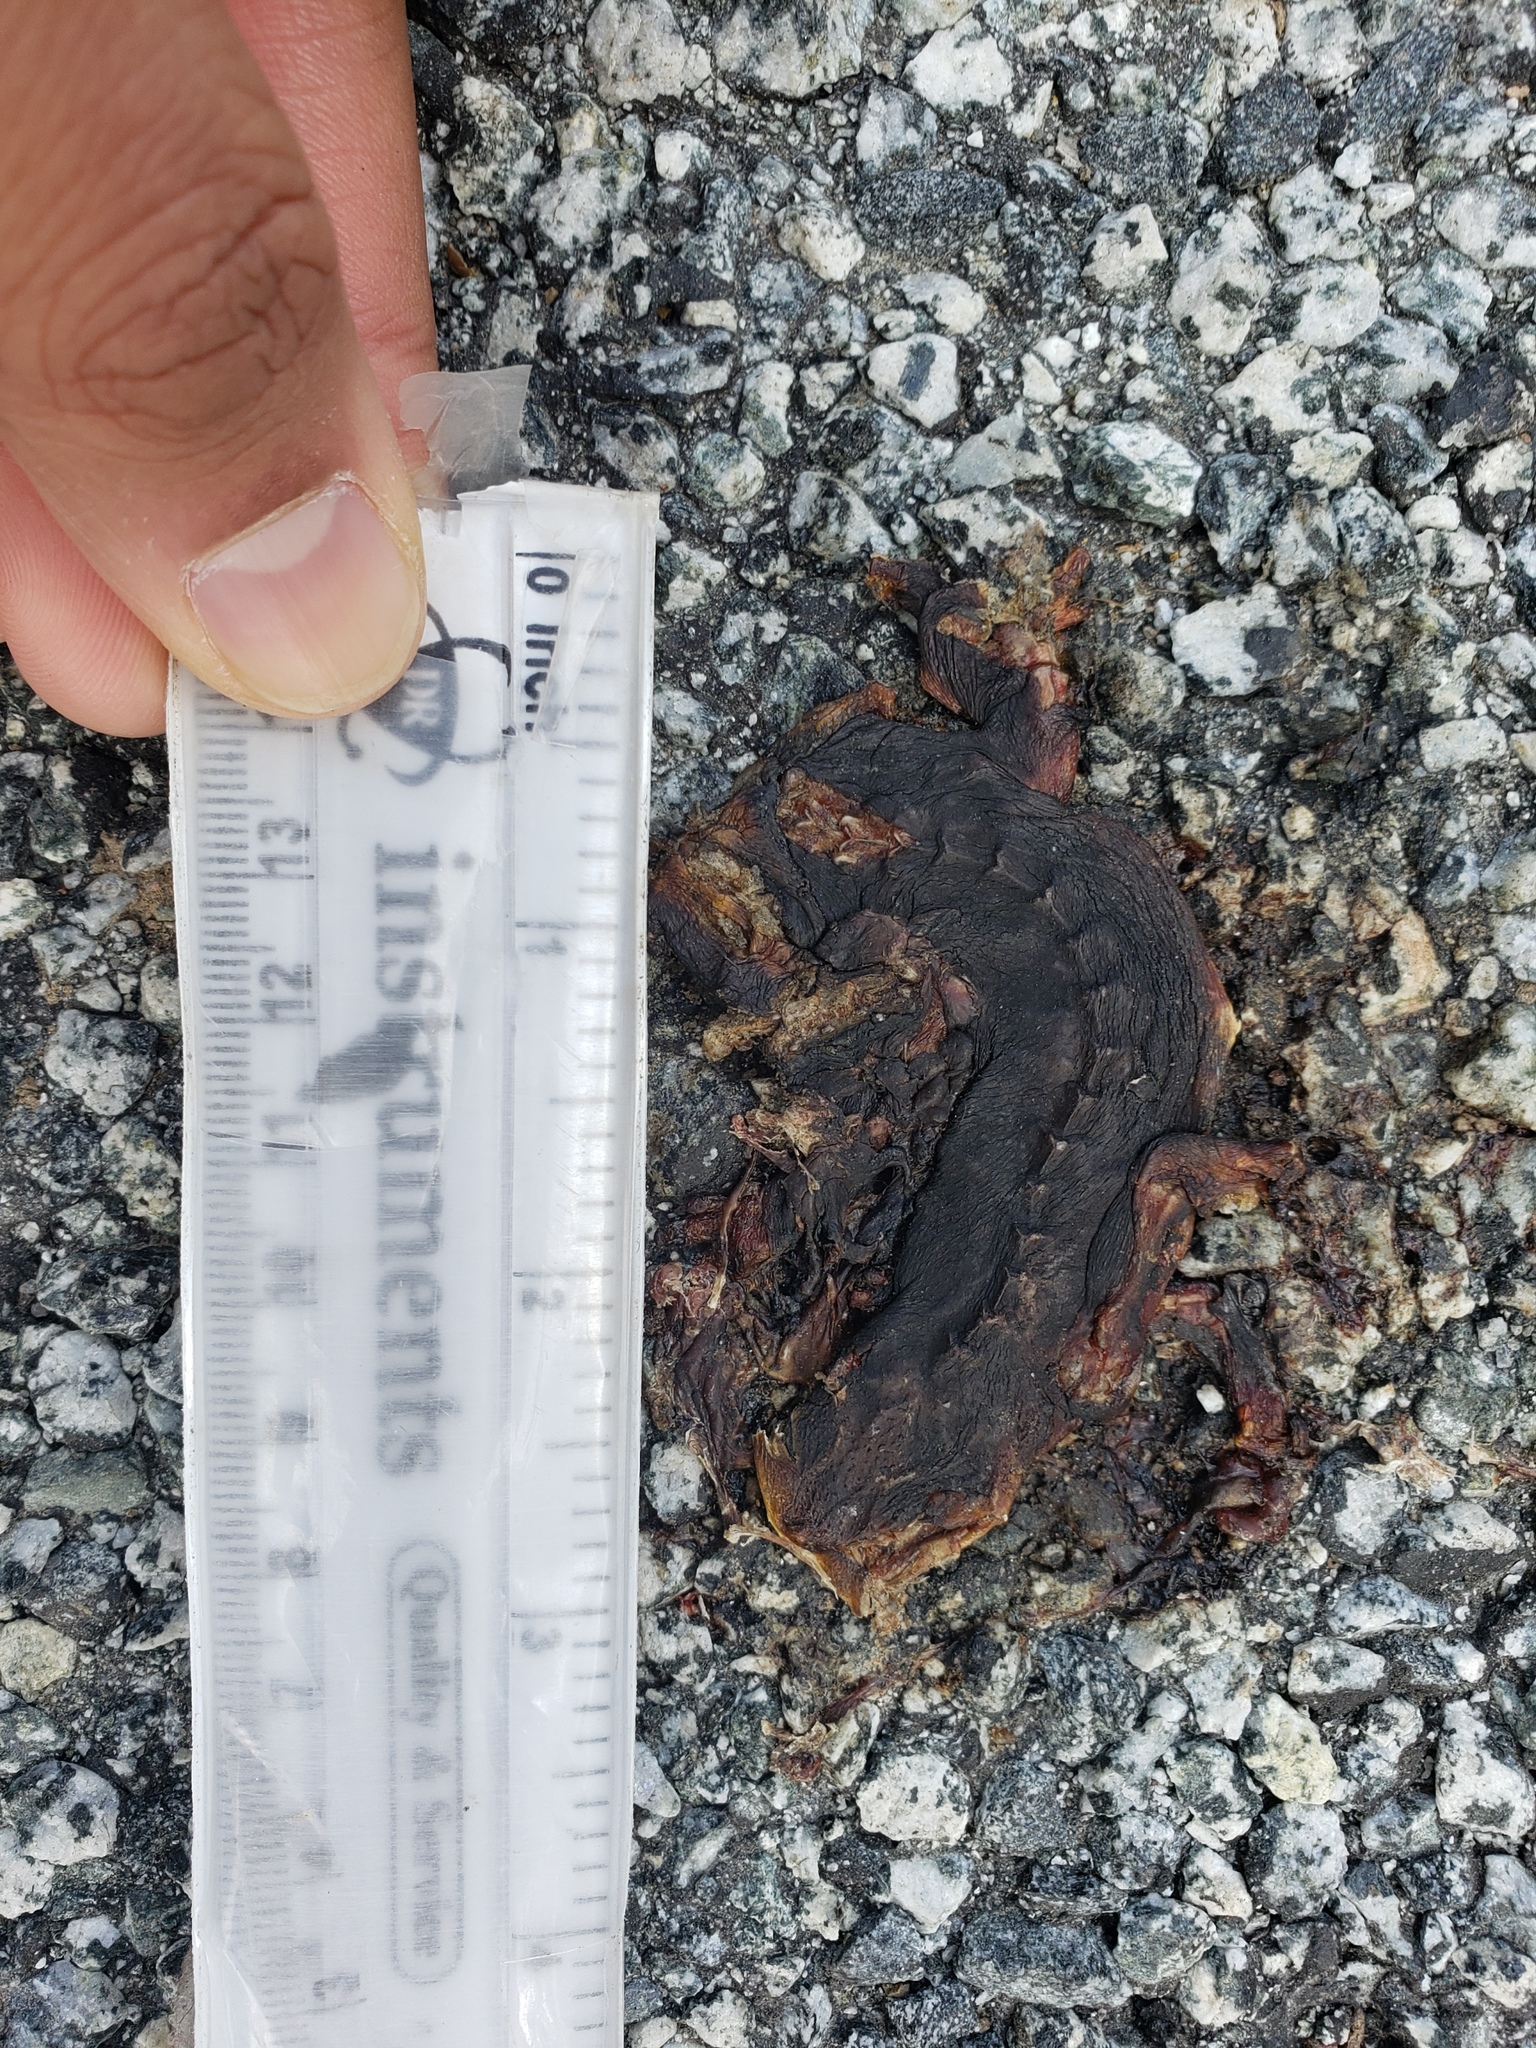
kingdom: Animalia
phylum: Chordata
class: Amphibia
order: Caudata
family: Salamandridae
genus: Taricha
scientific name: Taricha
